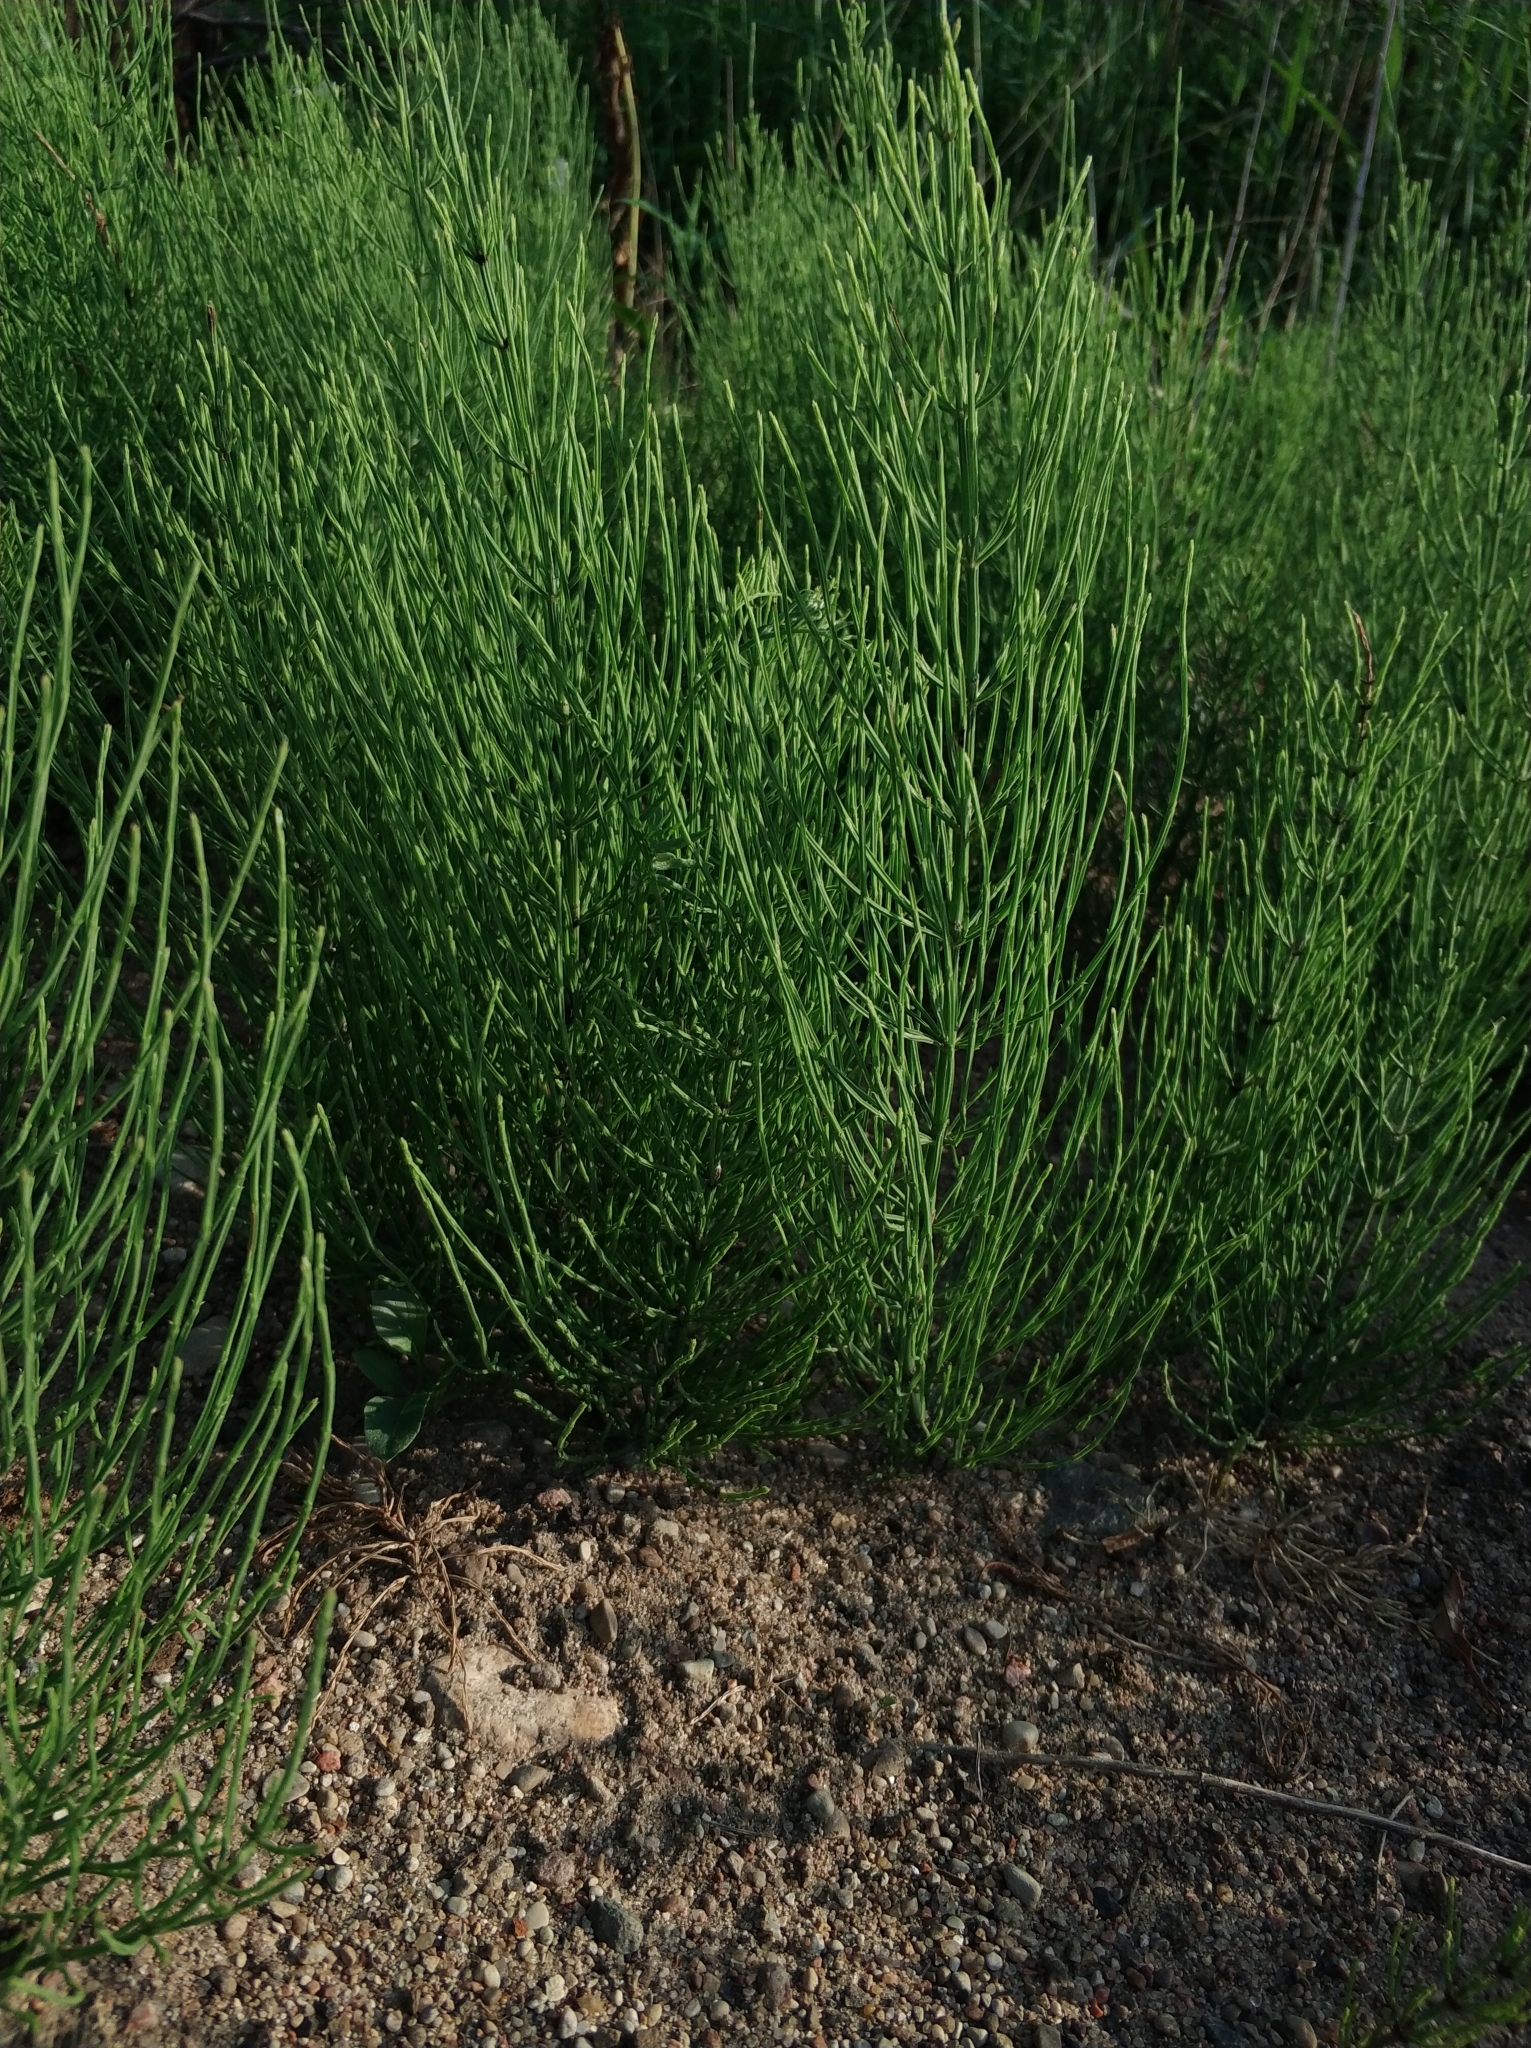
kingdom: Plantae
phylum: Tracheophyta
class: Polypodiopsida
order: Equisetales
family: Equisetaceae
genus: Equisetum
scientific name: Equisetum arvense
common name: Field horsetail
